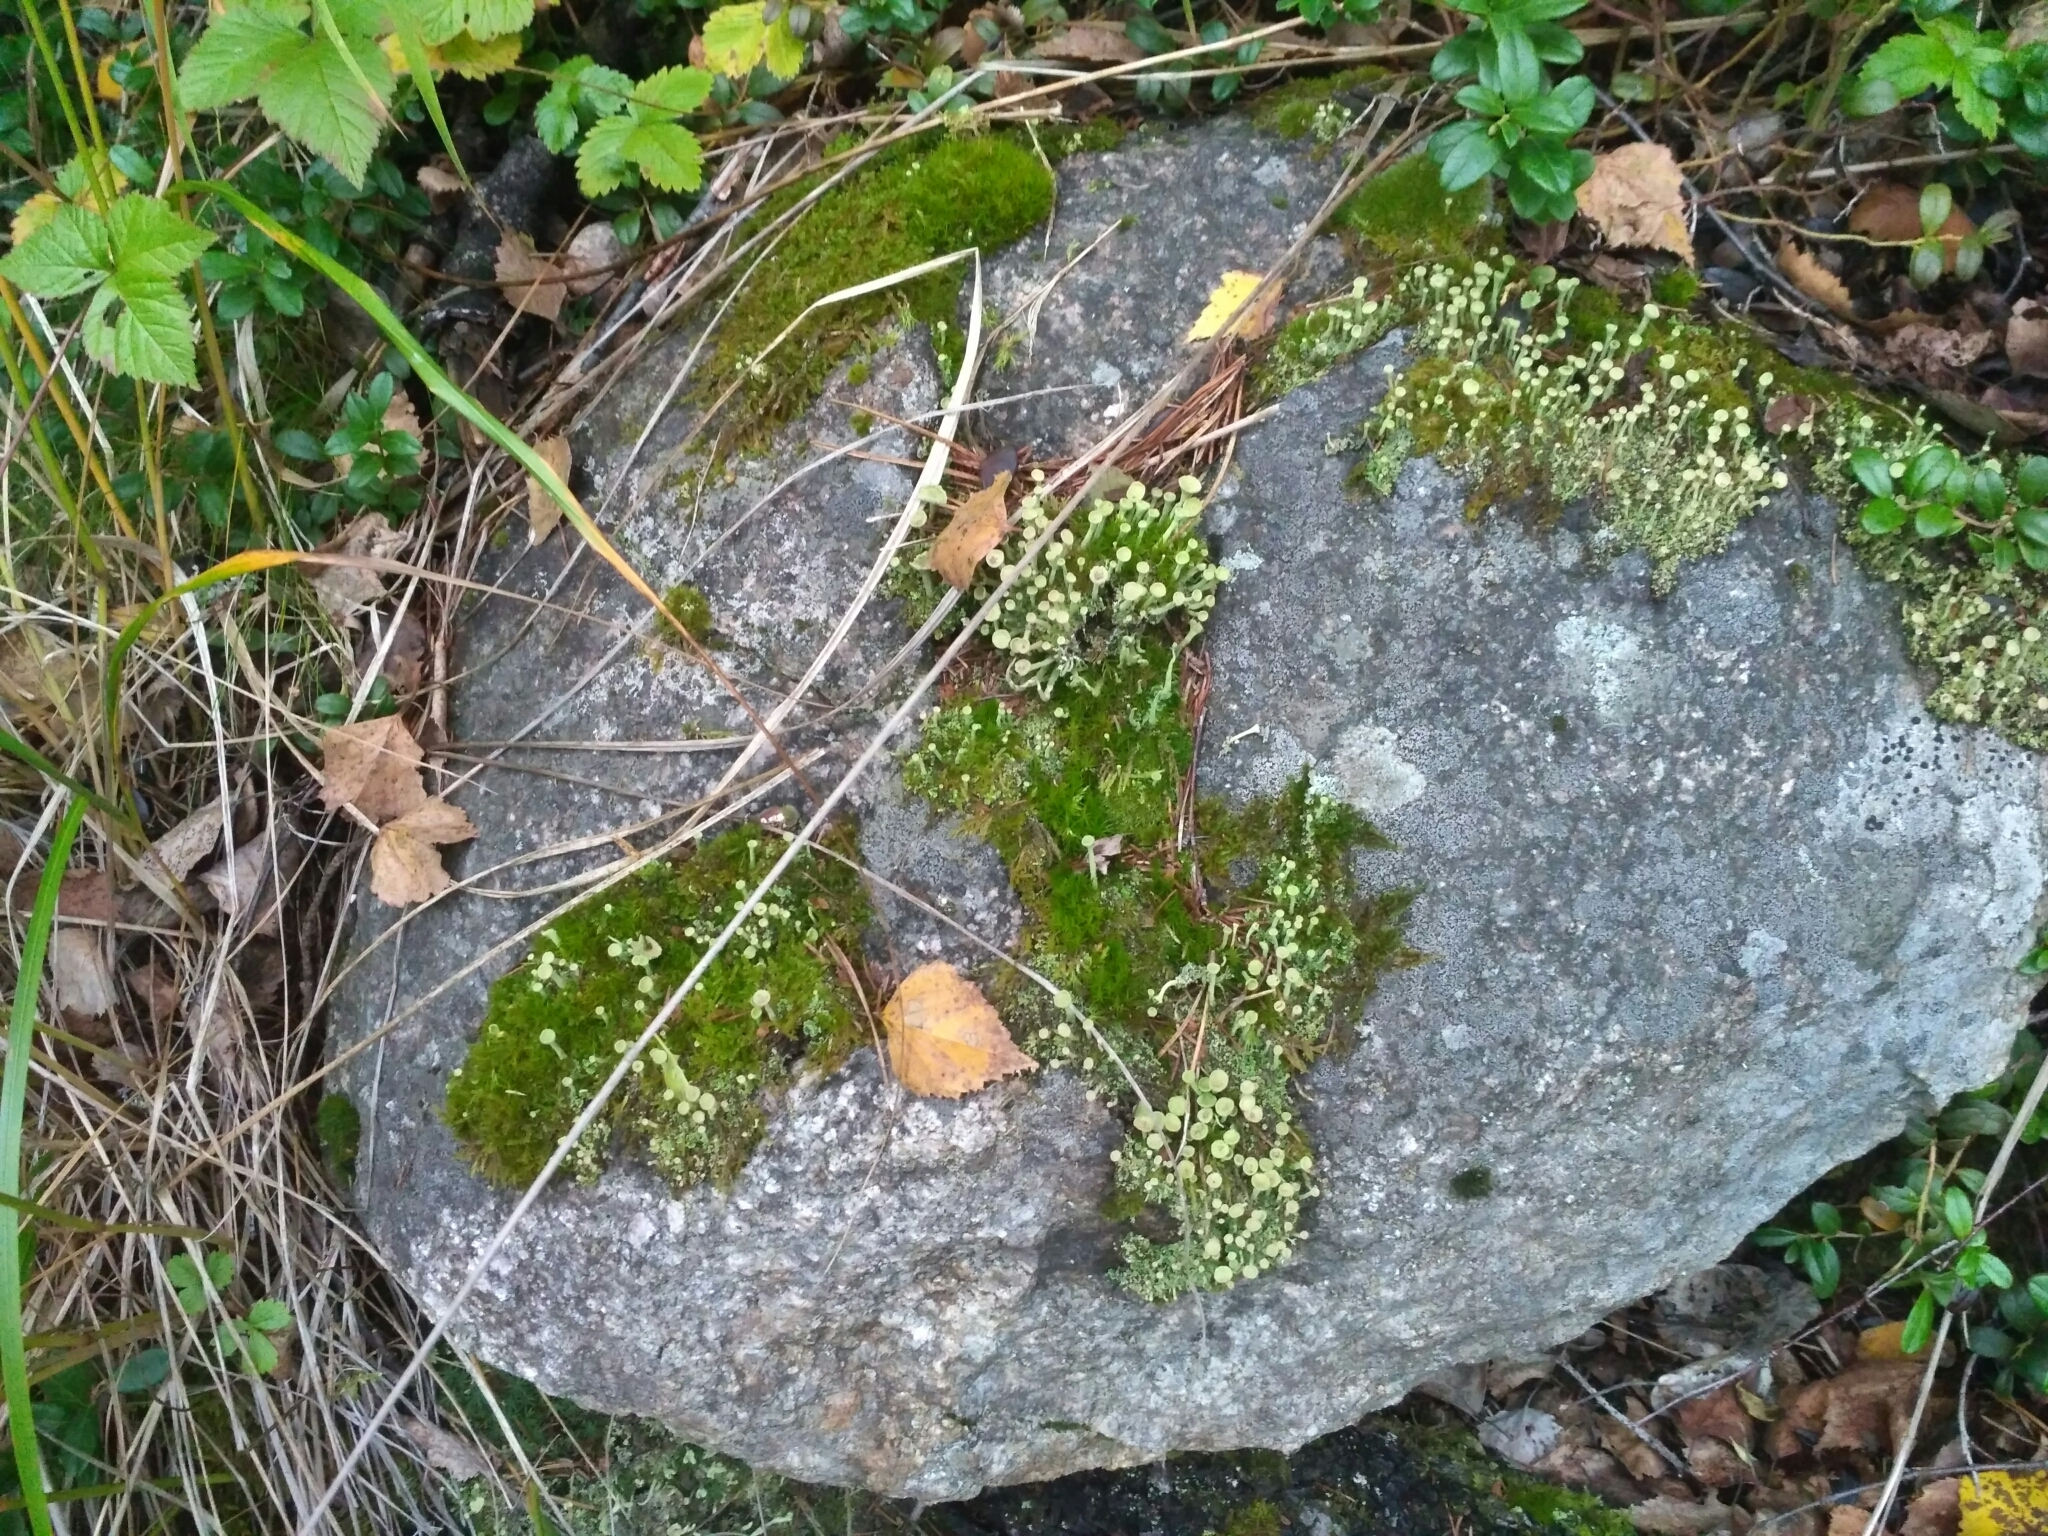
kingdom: Fungi
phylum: Ascomycota
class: Lecanoromycetes
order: Lecanorales
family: Cladoniaceae
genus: Cladonia
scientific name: Cladonia fimbriata
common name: Powdered trumpet lichen
